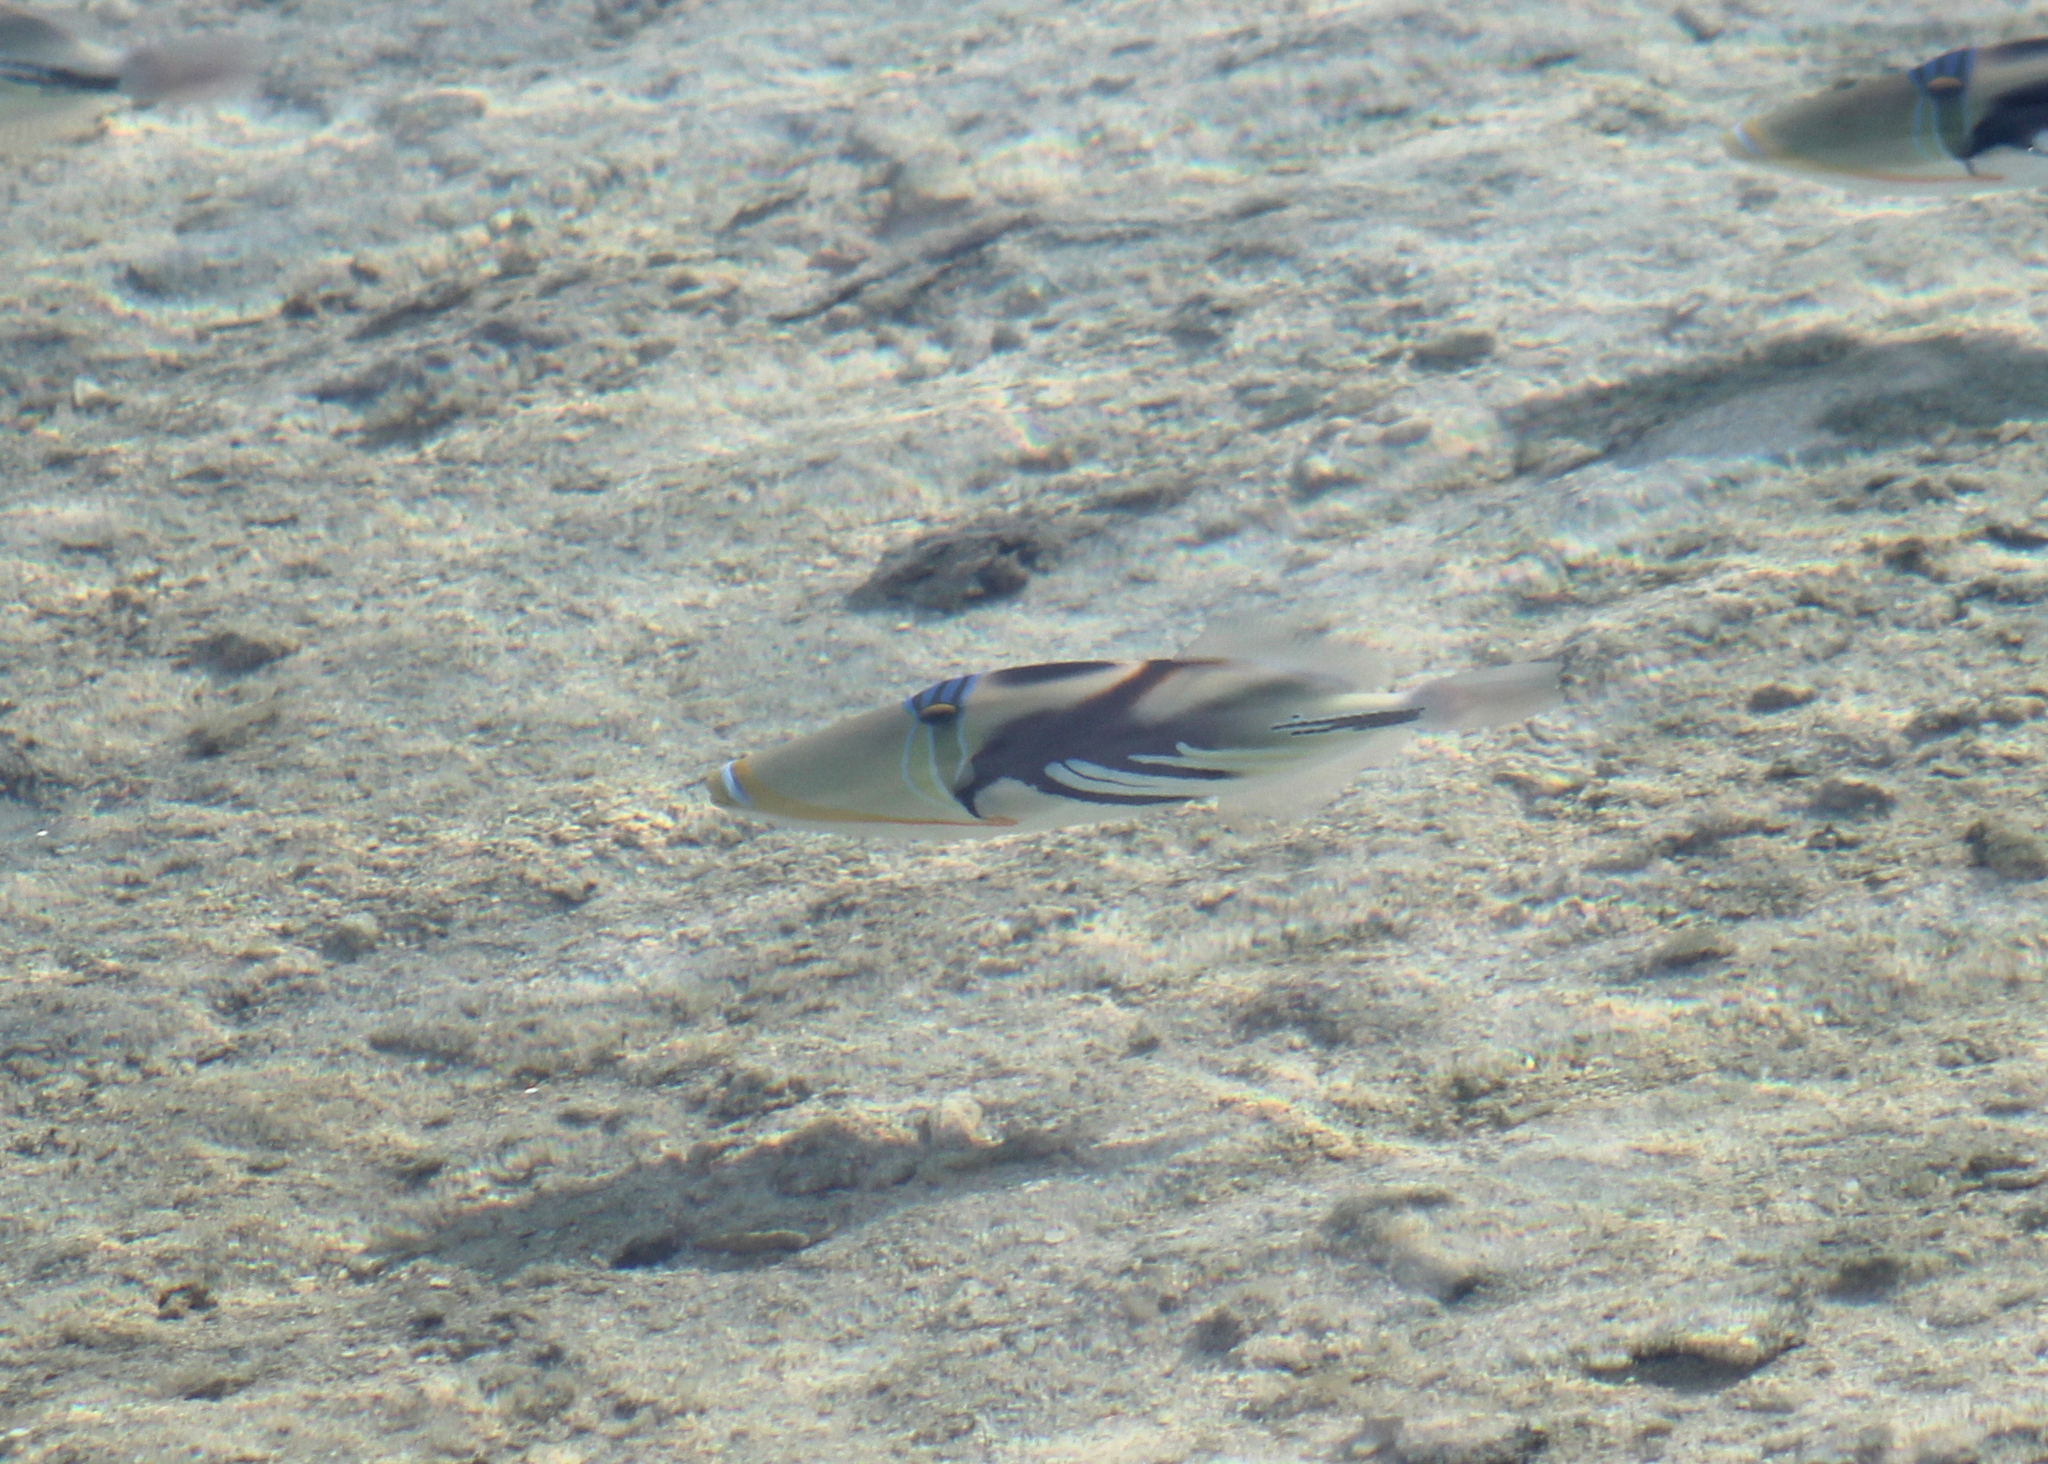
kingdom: Animalia
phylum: Chordata
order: Tetraodontiformes
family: Balistidae
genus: Rhinecanthus
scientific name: Rhinecanthus aculeatus
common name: White-banded triggerfish
